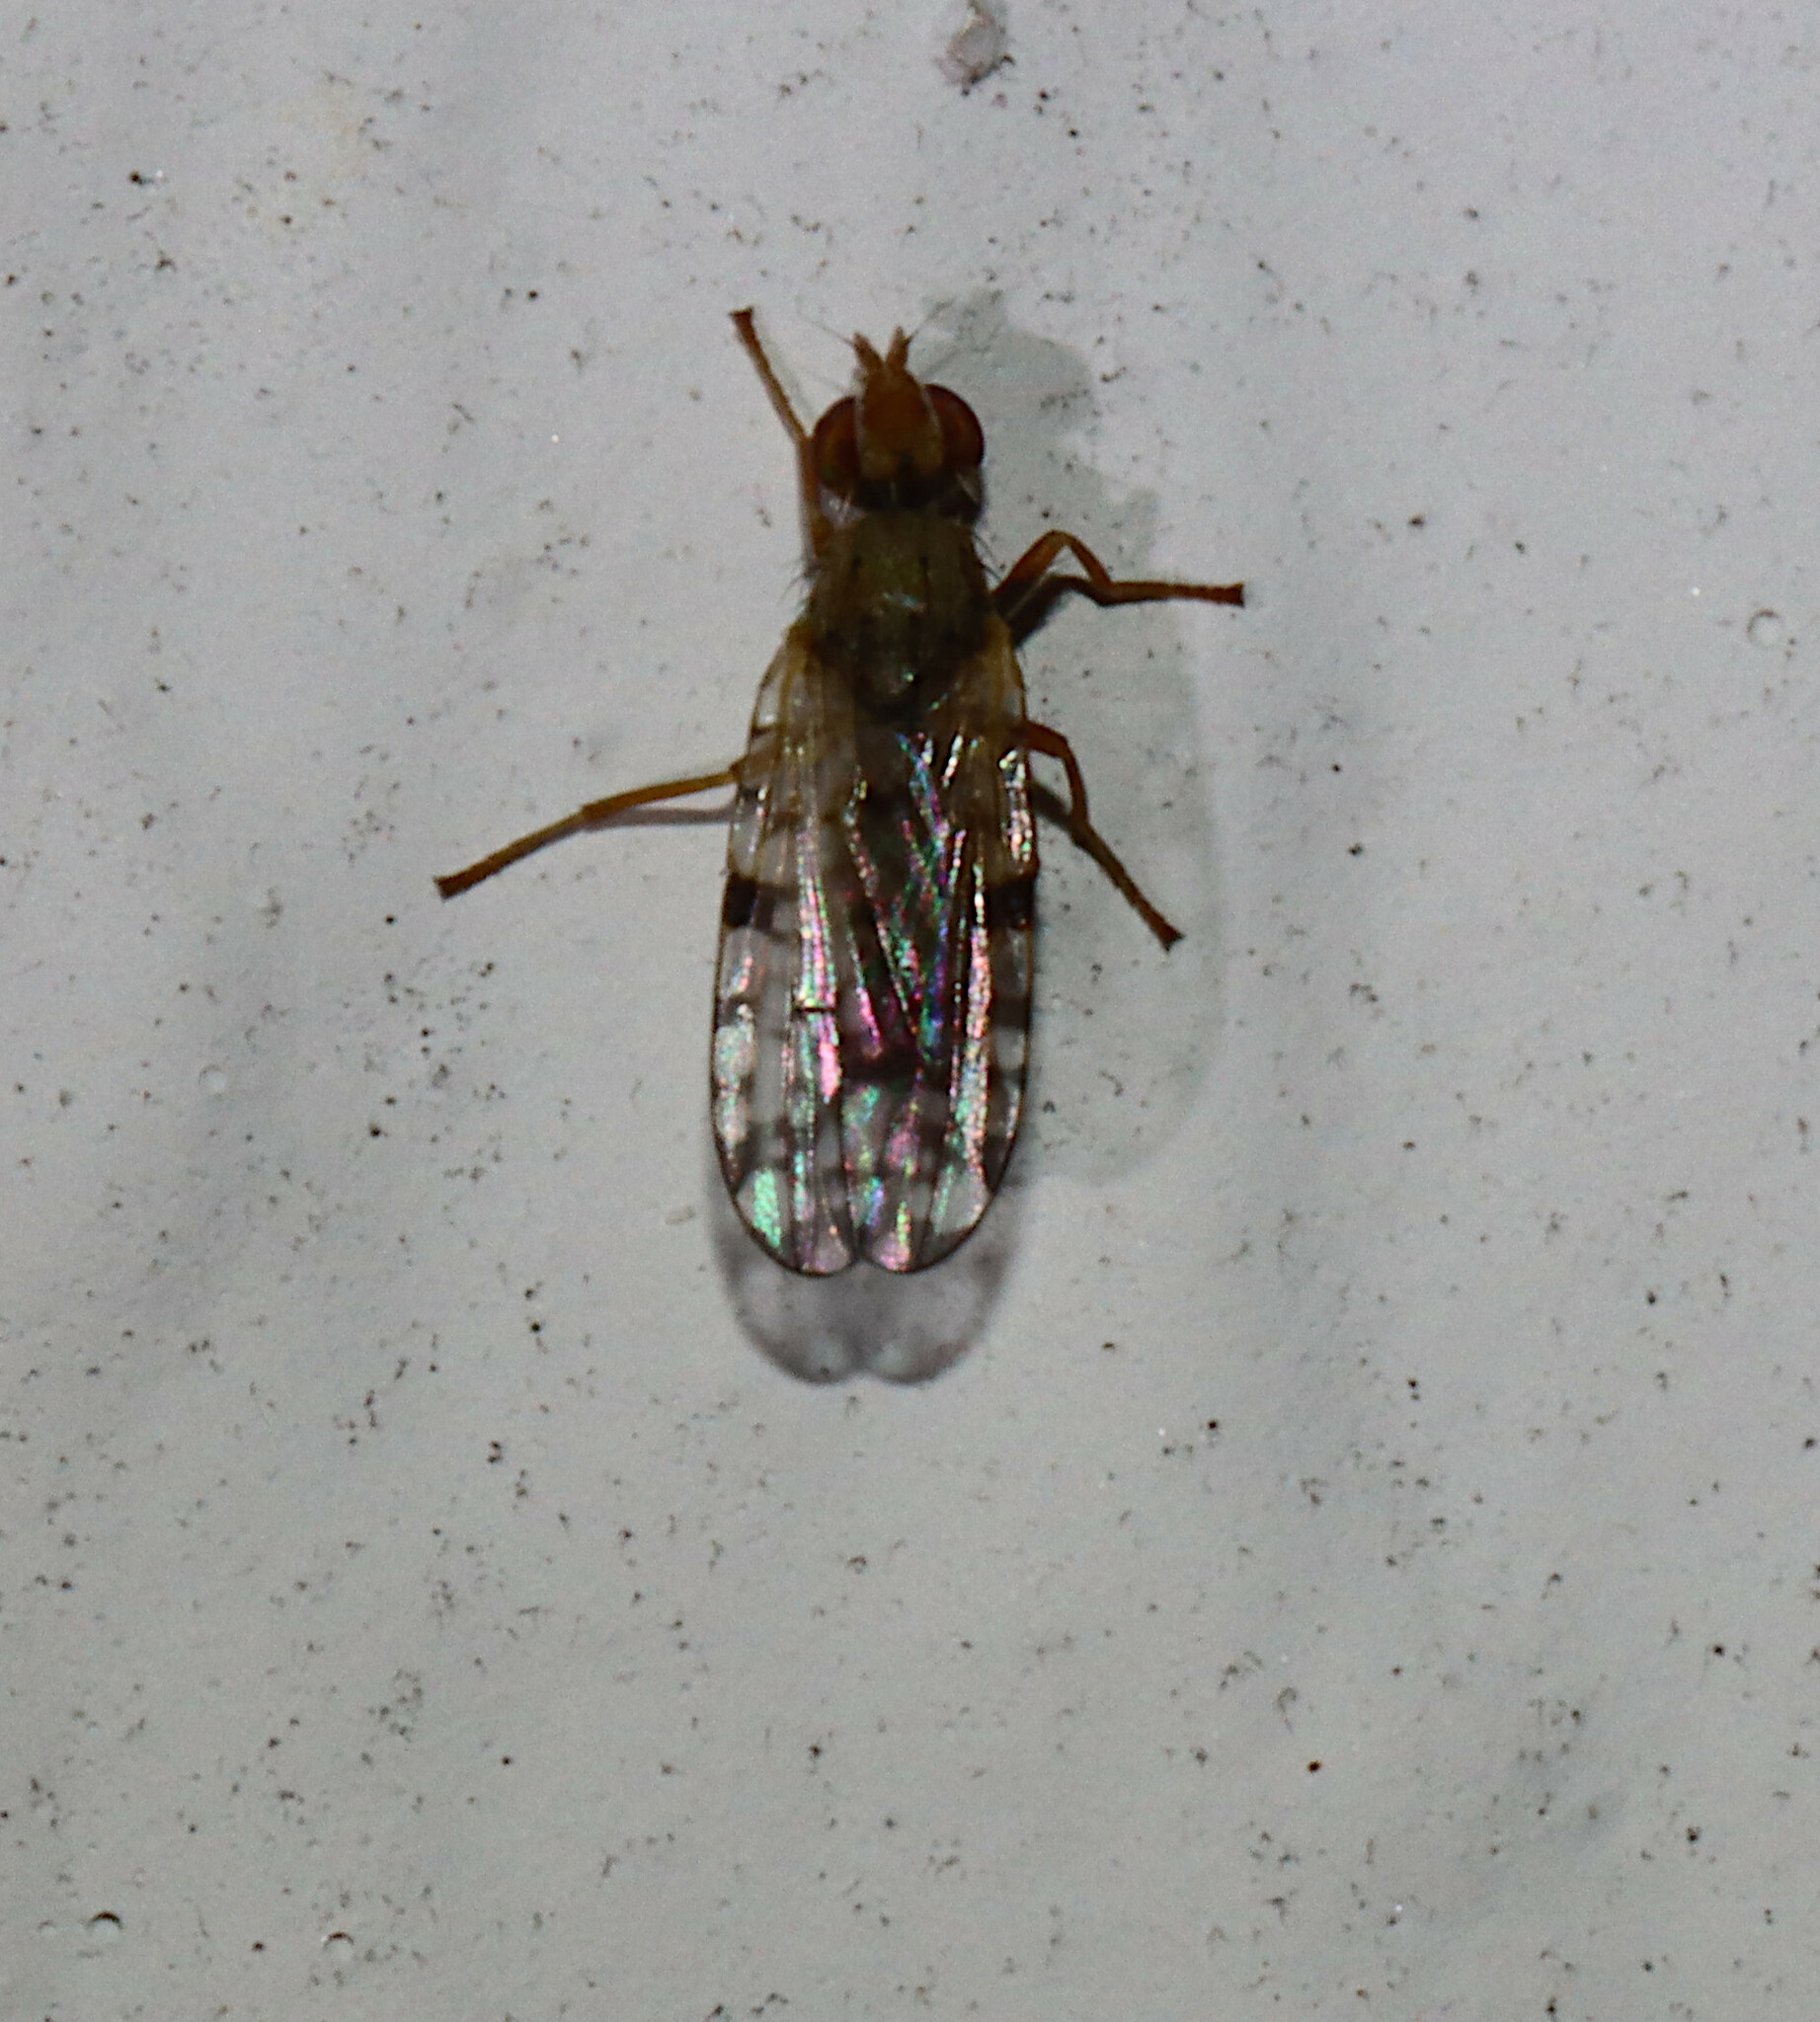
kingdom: Animalia
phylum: Arthropoda
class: Insecta
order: Diptera
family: Tephritidae
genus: Dioxyna
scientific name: Dioxyna picciola
